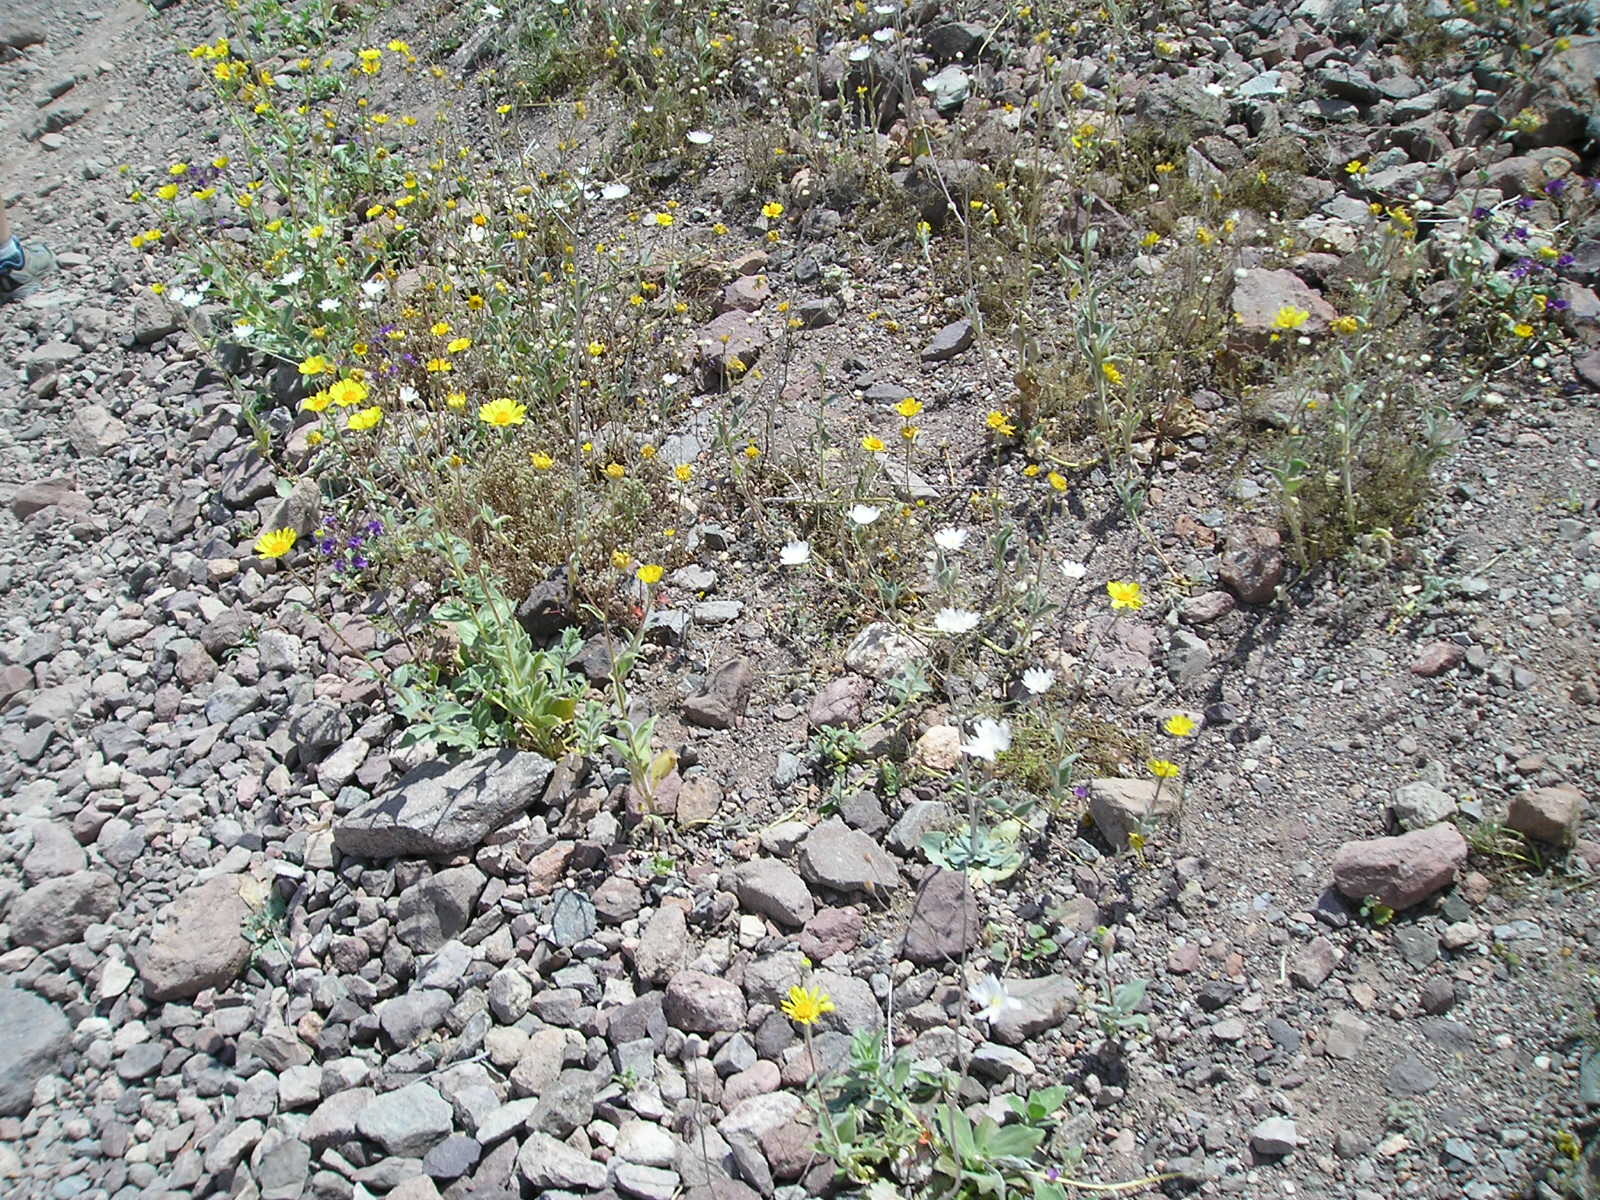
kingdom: Plantae
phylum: Tracheophyta
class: Magnoliopsida
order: Asterales
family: Asteraceae
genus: Geraea
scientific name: Geraea canescens
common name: Desert-gold
